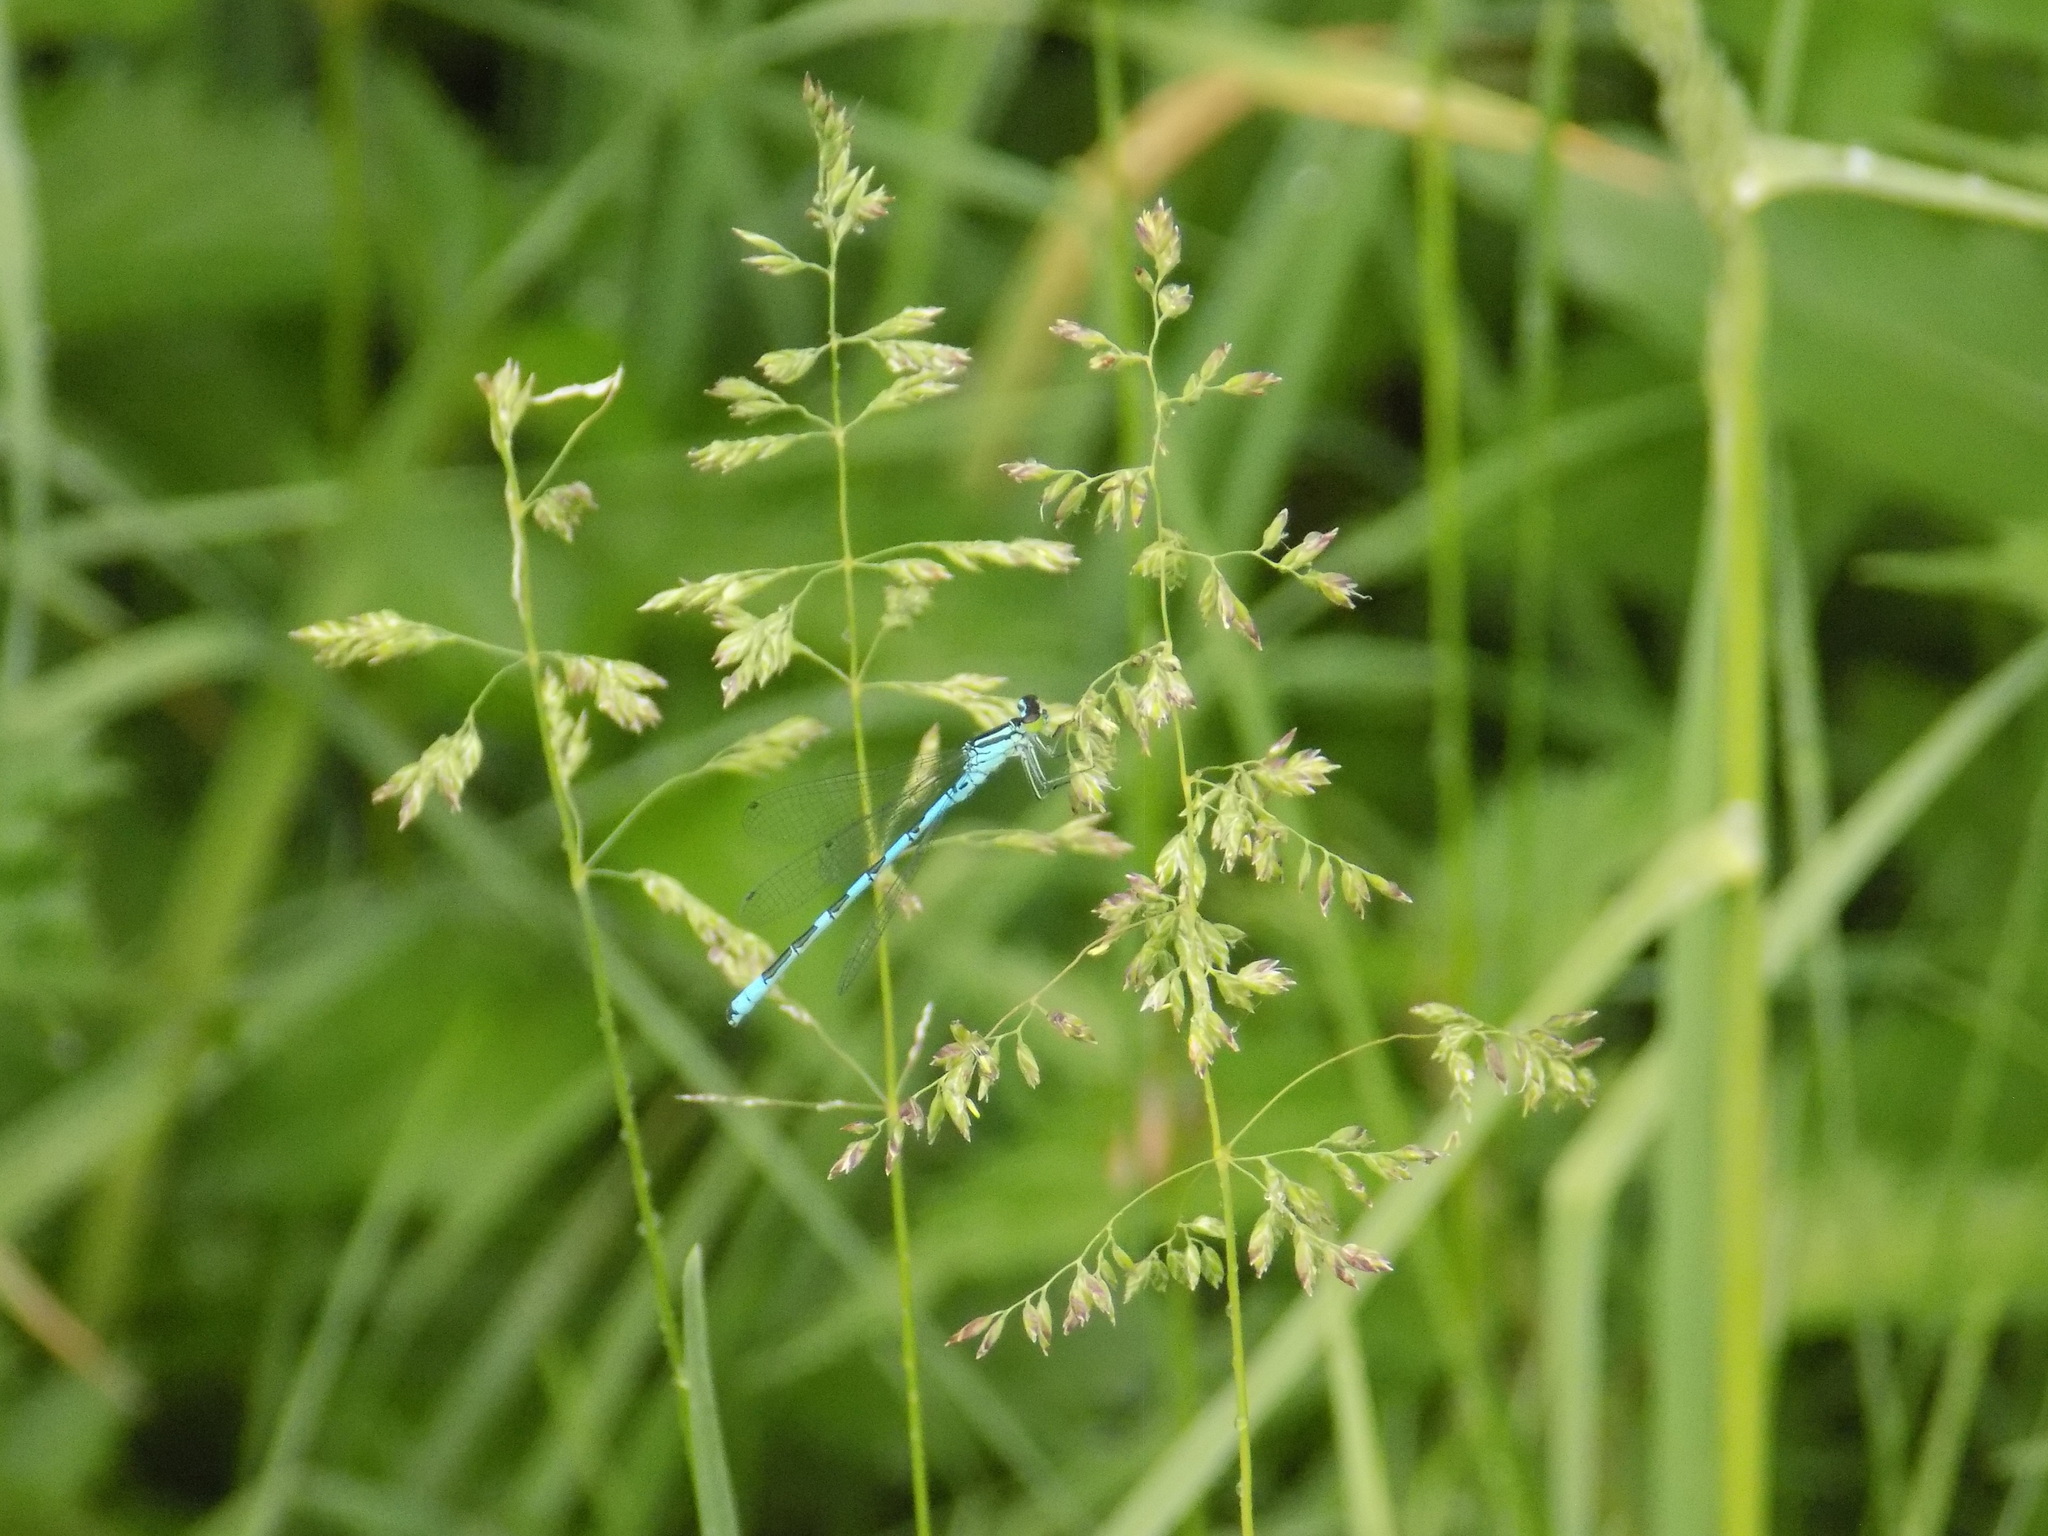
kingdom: Animalia
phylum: Arthropoda
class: Insecta
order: Odonata
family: Coenagrionidae
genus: Coenagrion
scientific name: Coenagrion hastulatum
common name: Spearhead bluet
